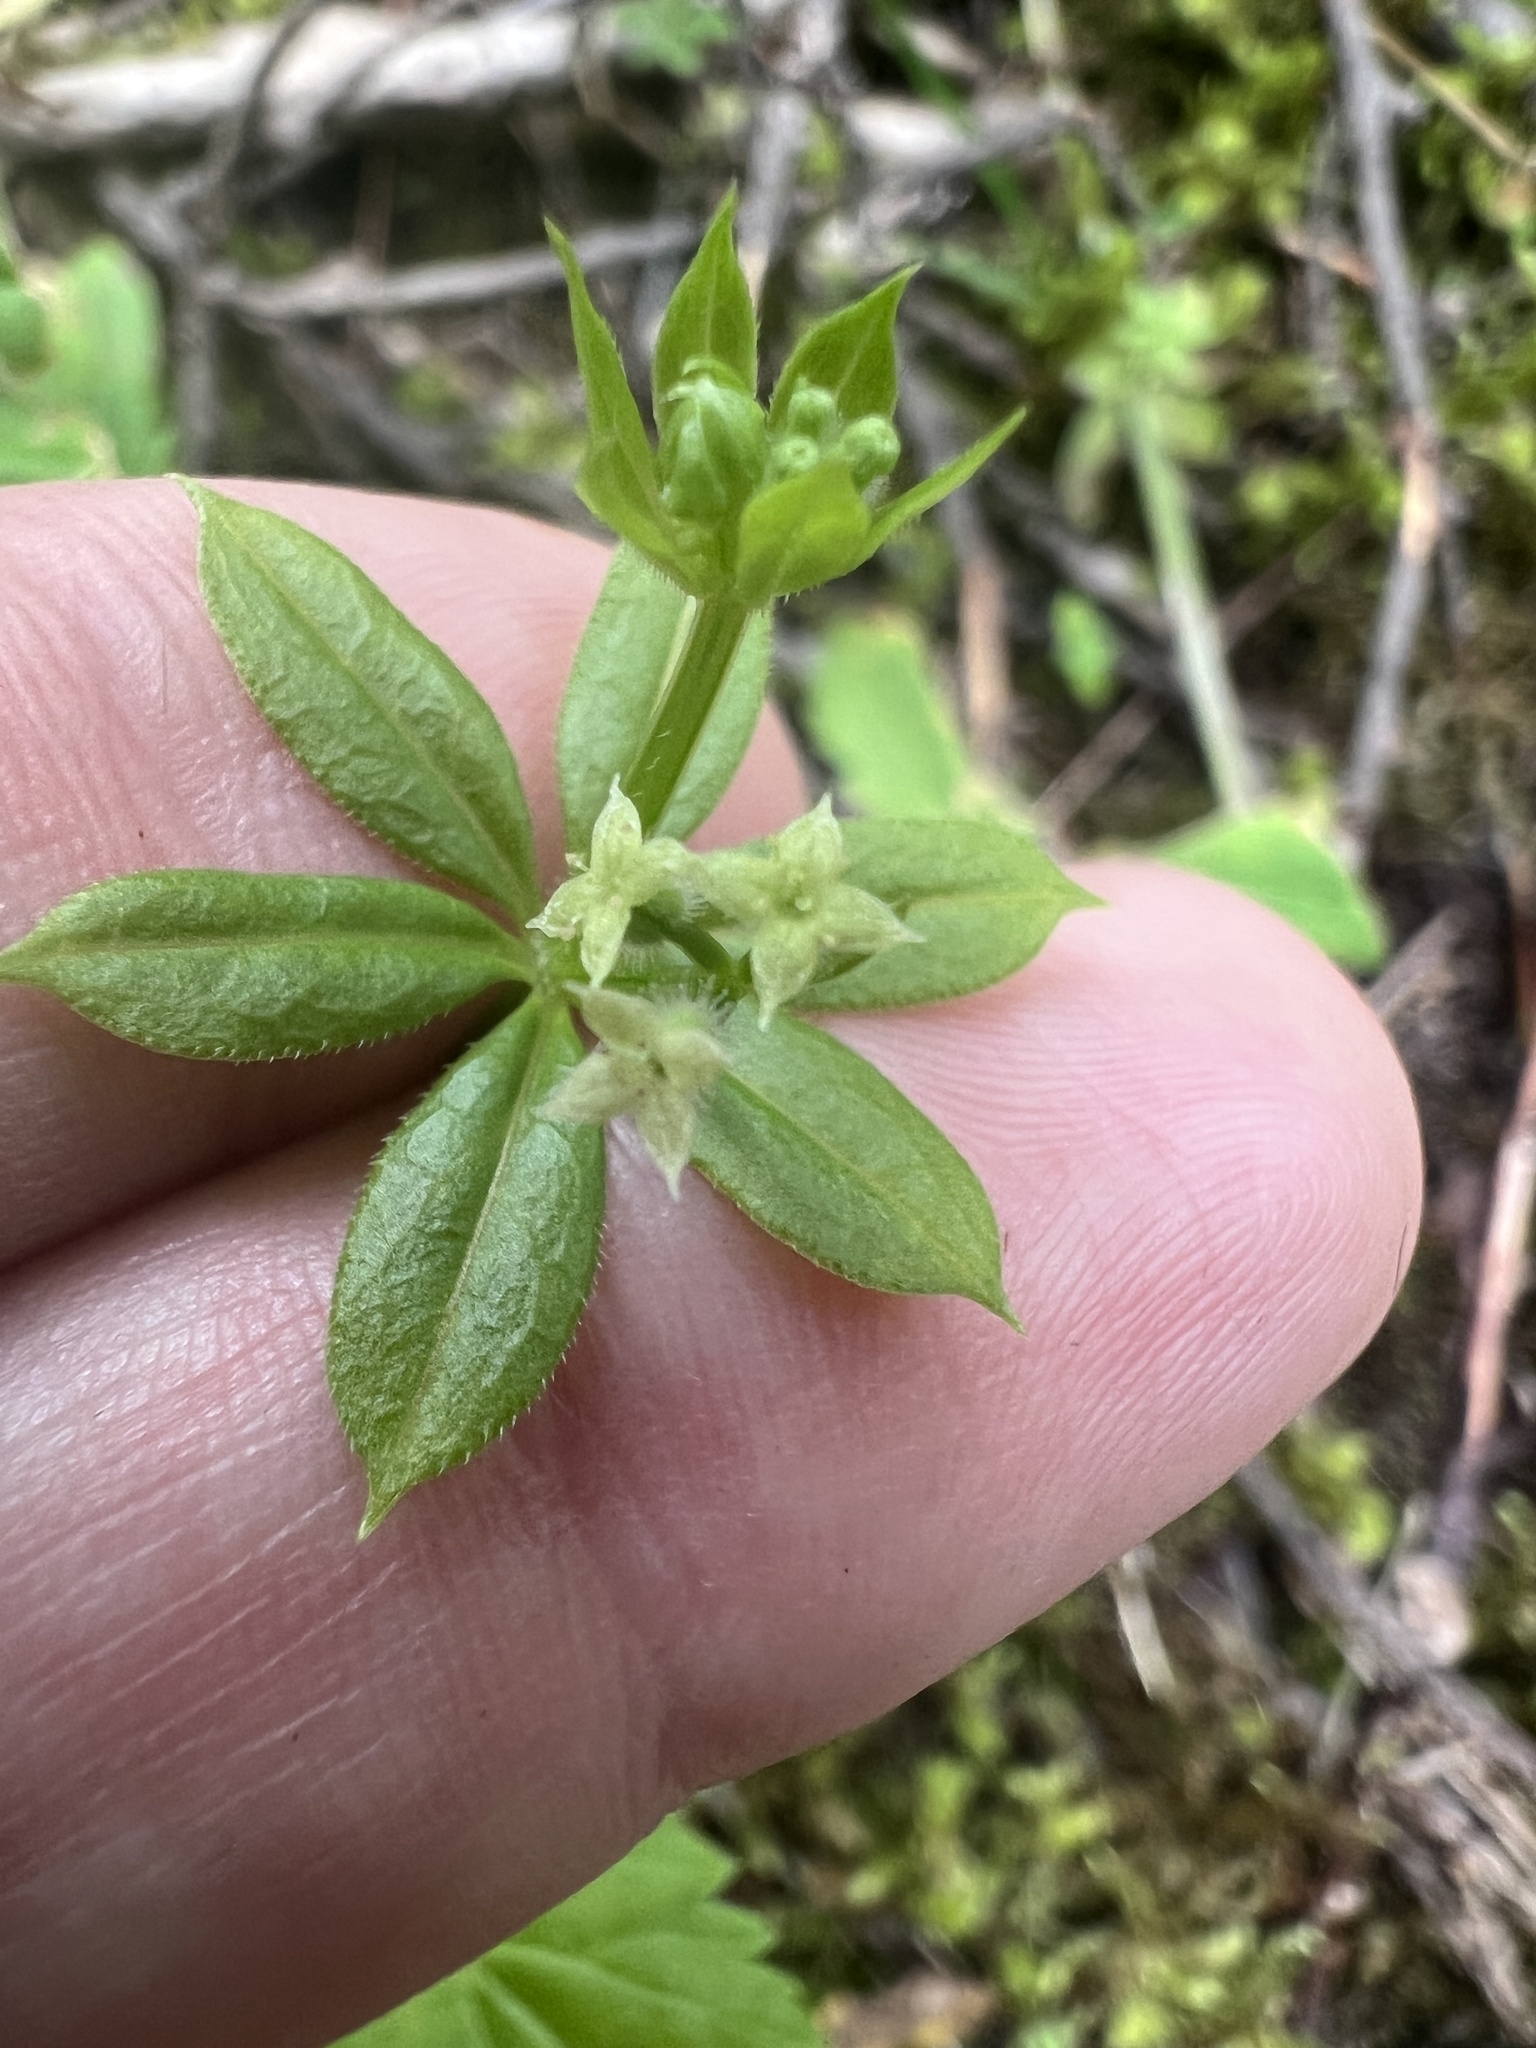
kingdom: Plantae
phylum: Tracheophyta
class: Magnoliopsida
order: Gentianales
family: Rubiaceae
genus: Galium
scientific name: Galium triflorum
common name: Fragrant bedstraw
